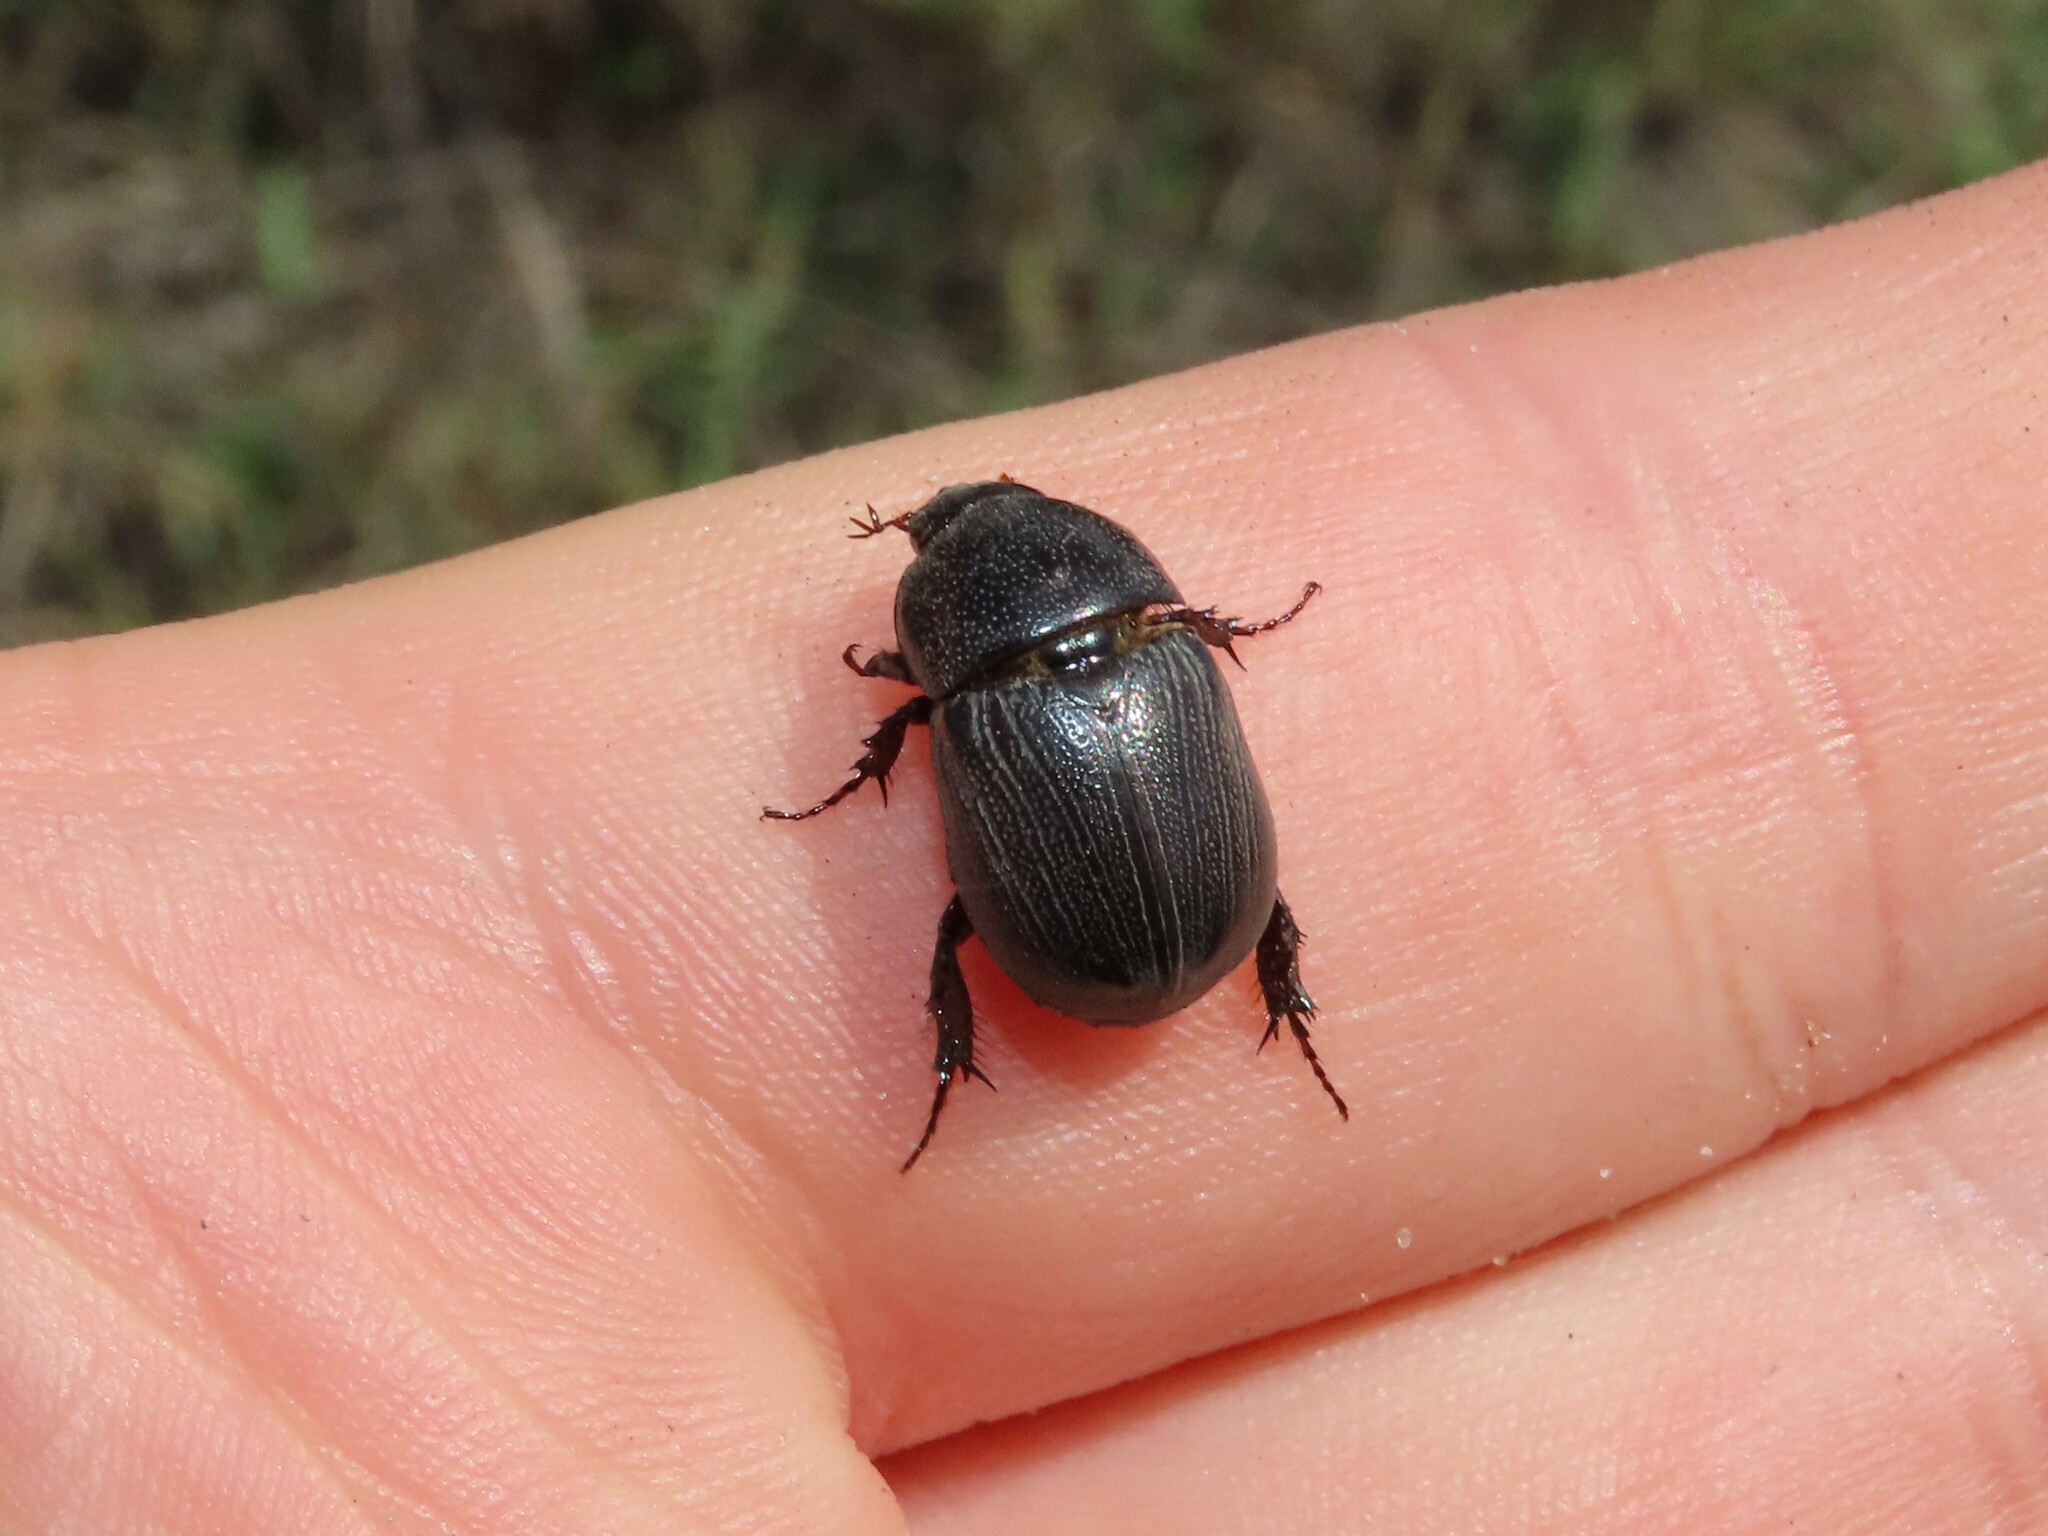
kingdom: Animalia
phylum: Arthropoda
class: Insecta
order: Coleoptera
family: Scarabaeidae
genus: Euetheola
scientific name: Euetheola humilis
